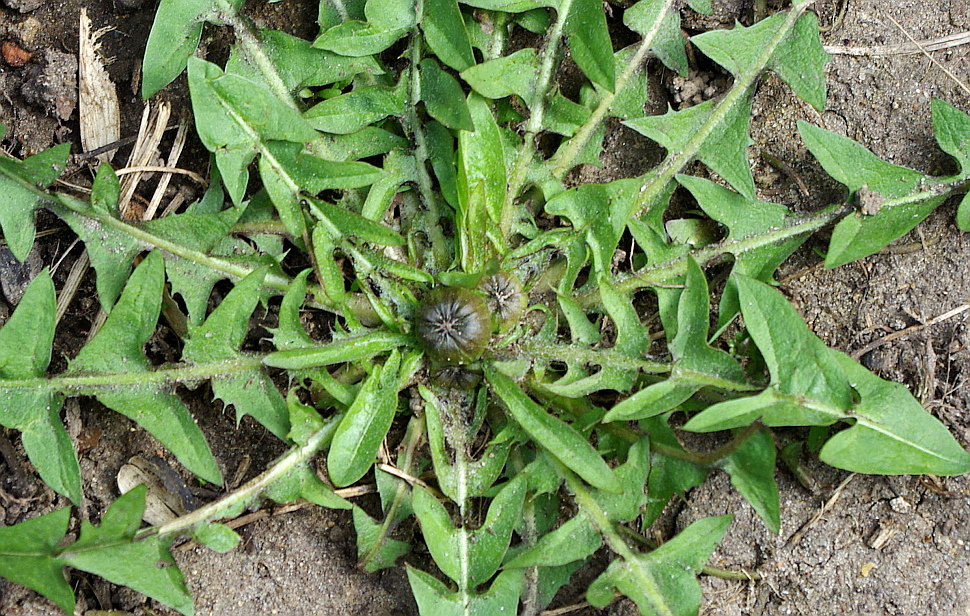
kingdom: Plantae
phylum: Tracheophyta
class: Magnoliopsida
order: Asterales
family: Asteraceae
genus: Taraxacum
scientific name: Taraxacum officinale
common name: Common dandelion
